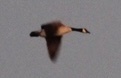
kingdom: Animalia
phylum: Chordata
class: Aves
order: Anseriformes
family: Anatidae
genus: Branta
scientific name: Branta hutchinsii
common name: Cackling goose
